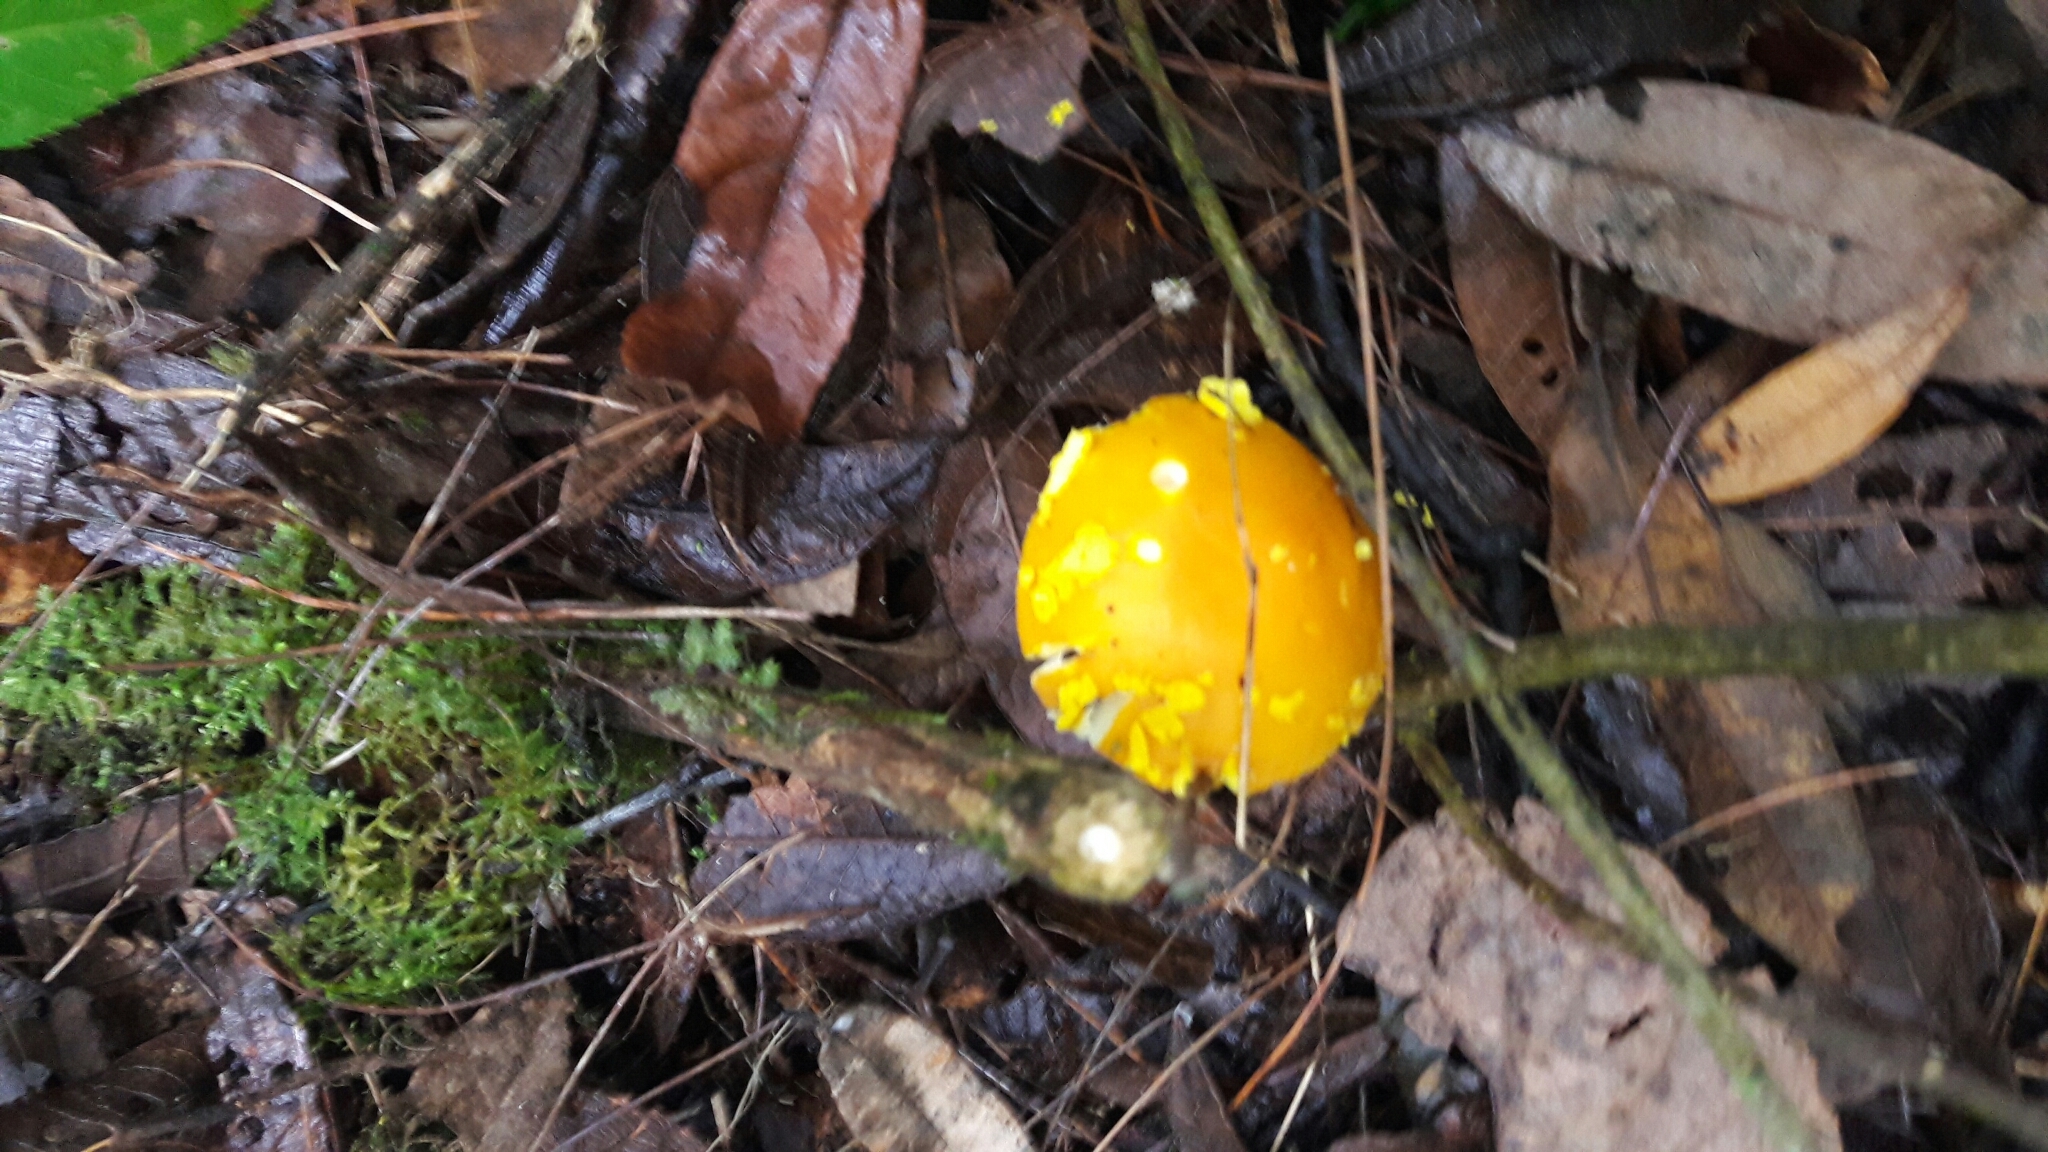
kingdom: Fungi
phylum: Basidiomycota
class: Agaricomycetes
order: Agaricales
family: Amanitaceae
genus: Amanita
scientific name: Amanita flavoconia
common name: Yellow patches
